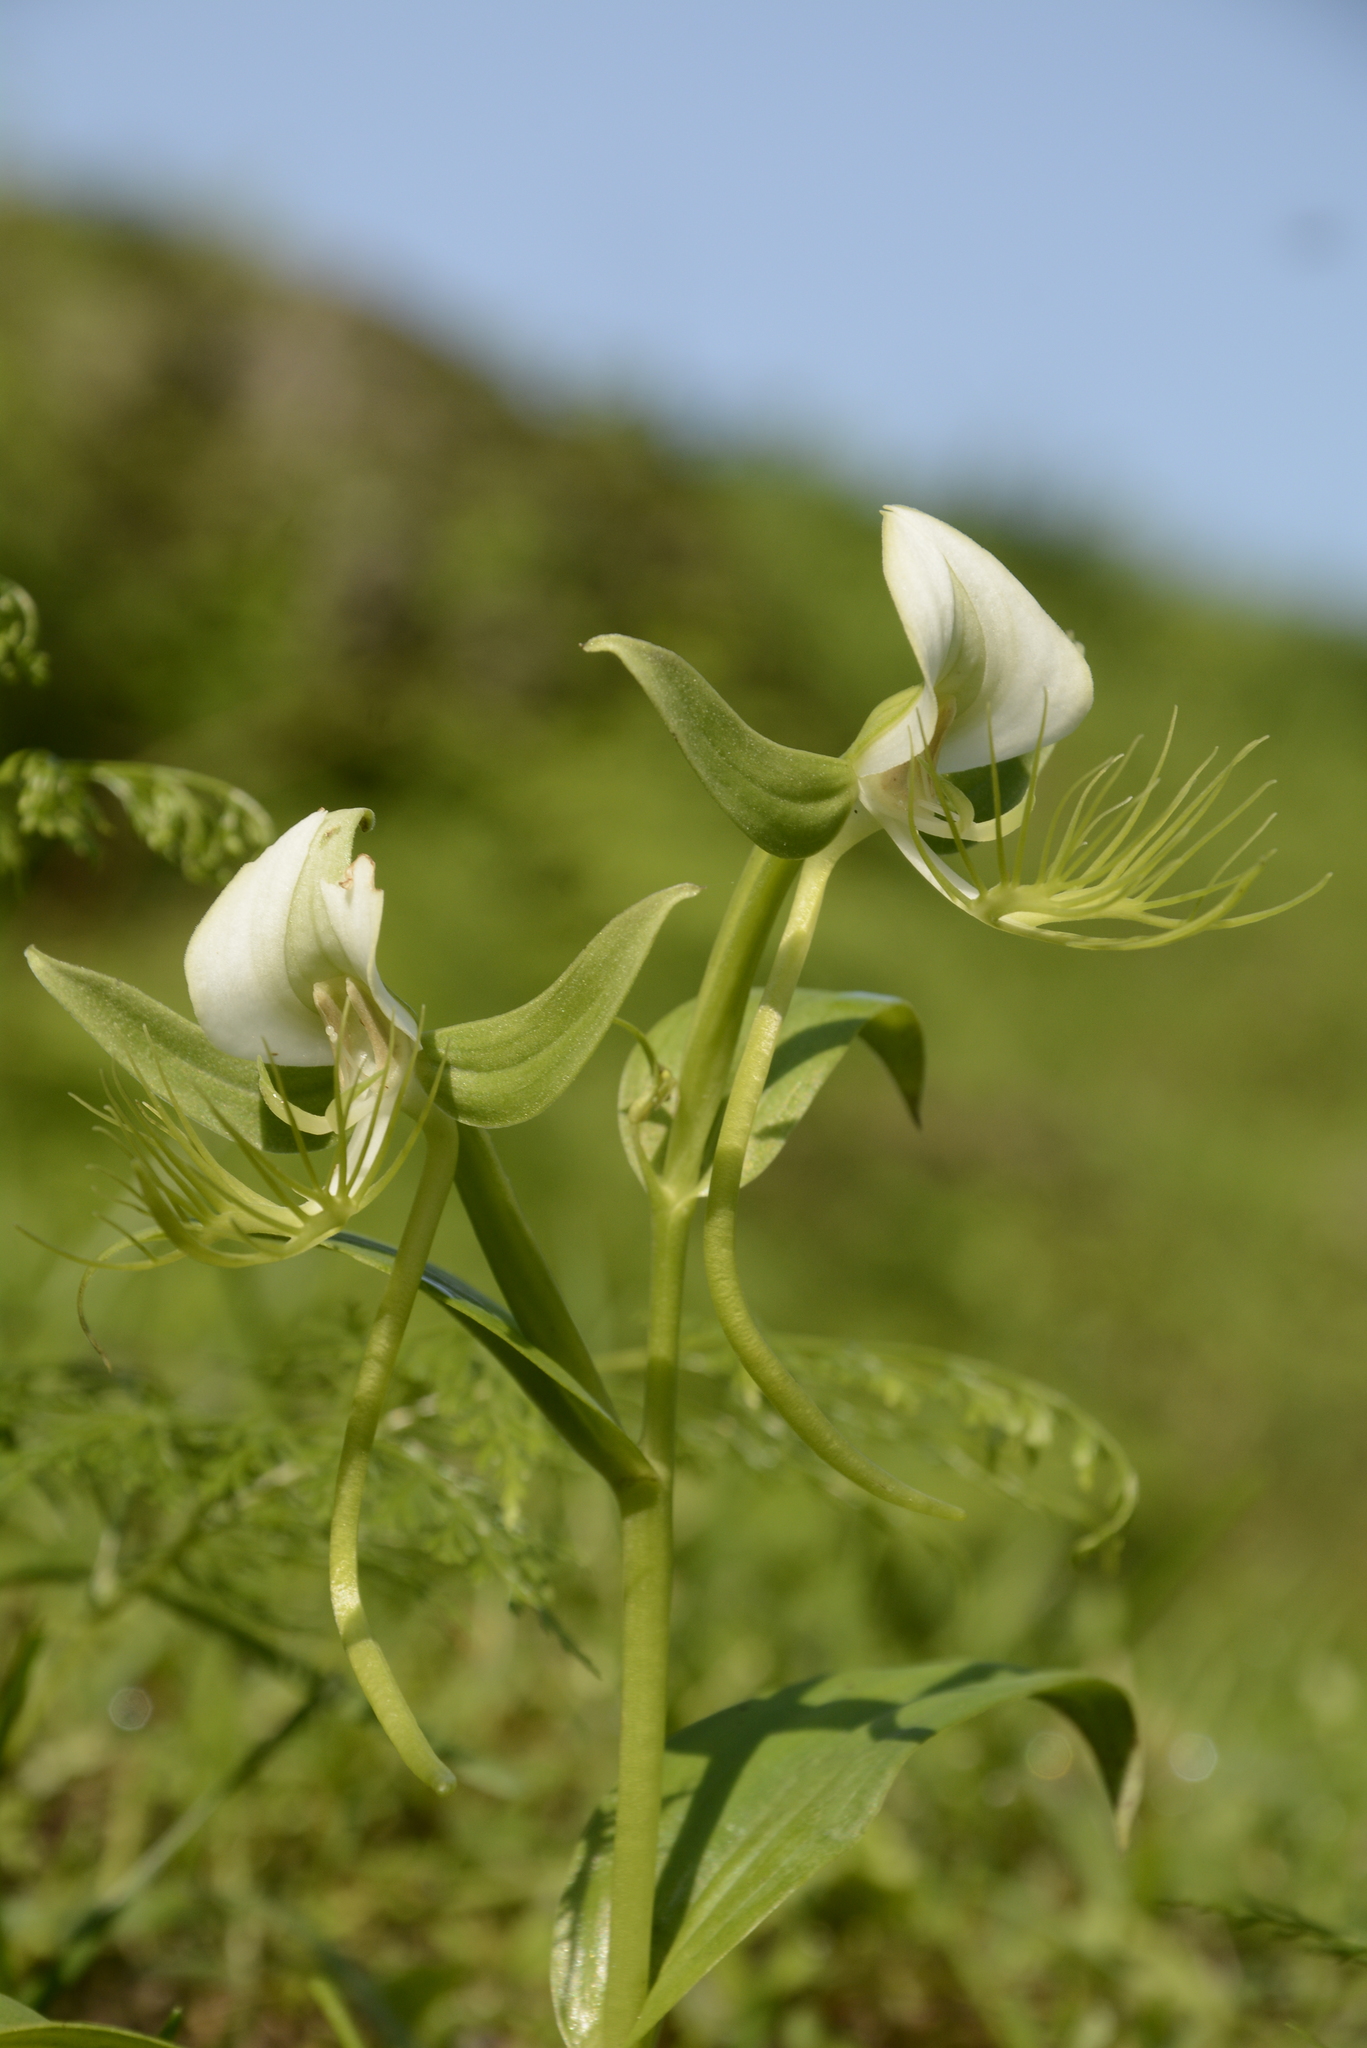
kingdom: Plantae
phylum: Tracheophyta
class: Liliopsida
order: Asparagales
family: Orchidaceae
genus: Habenaria
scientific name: Habenaria intermedia
